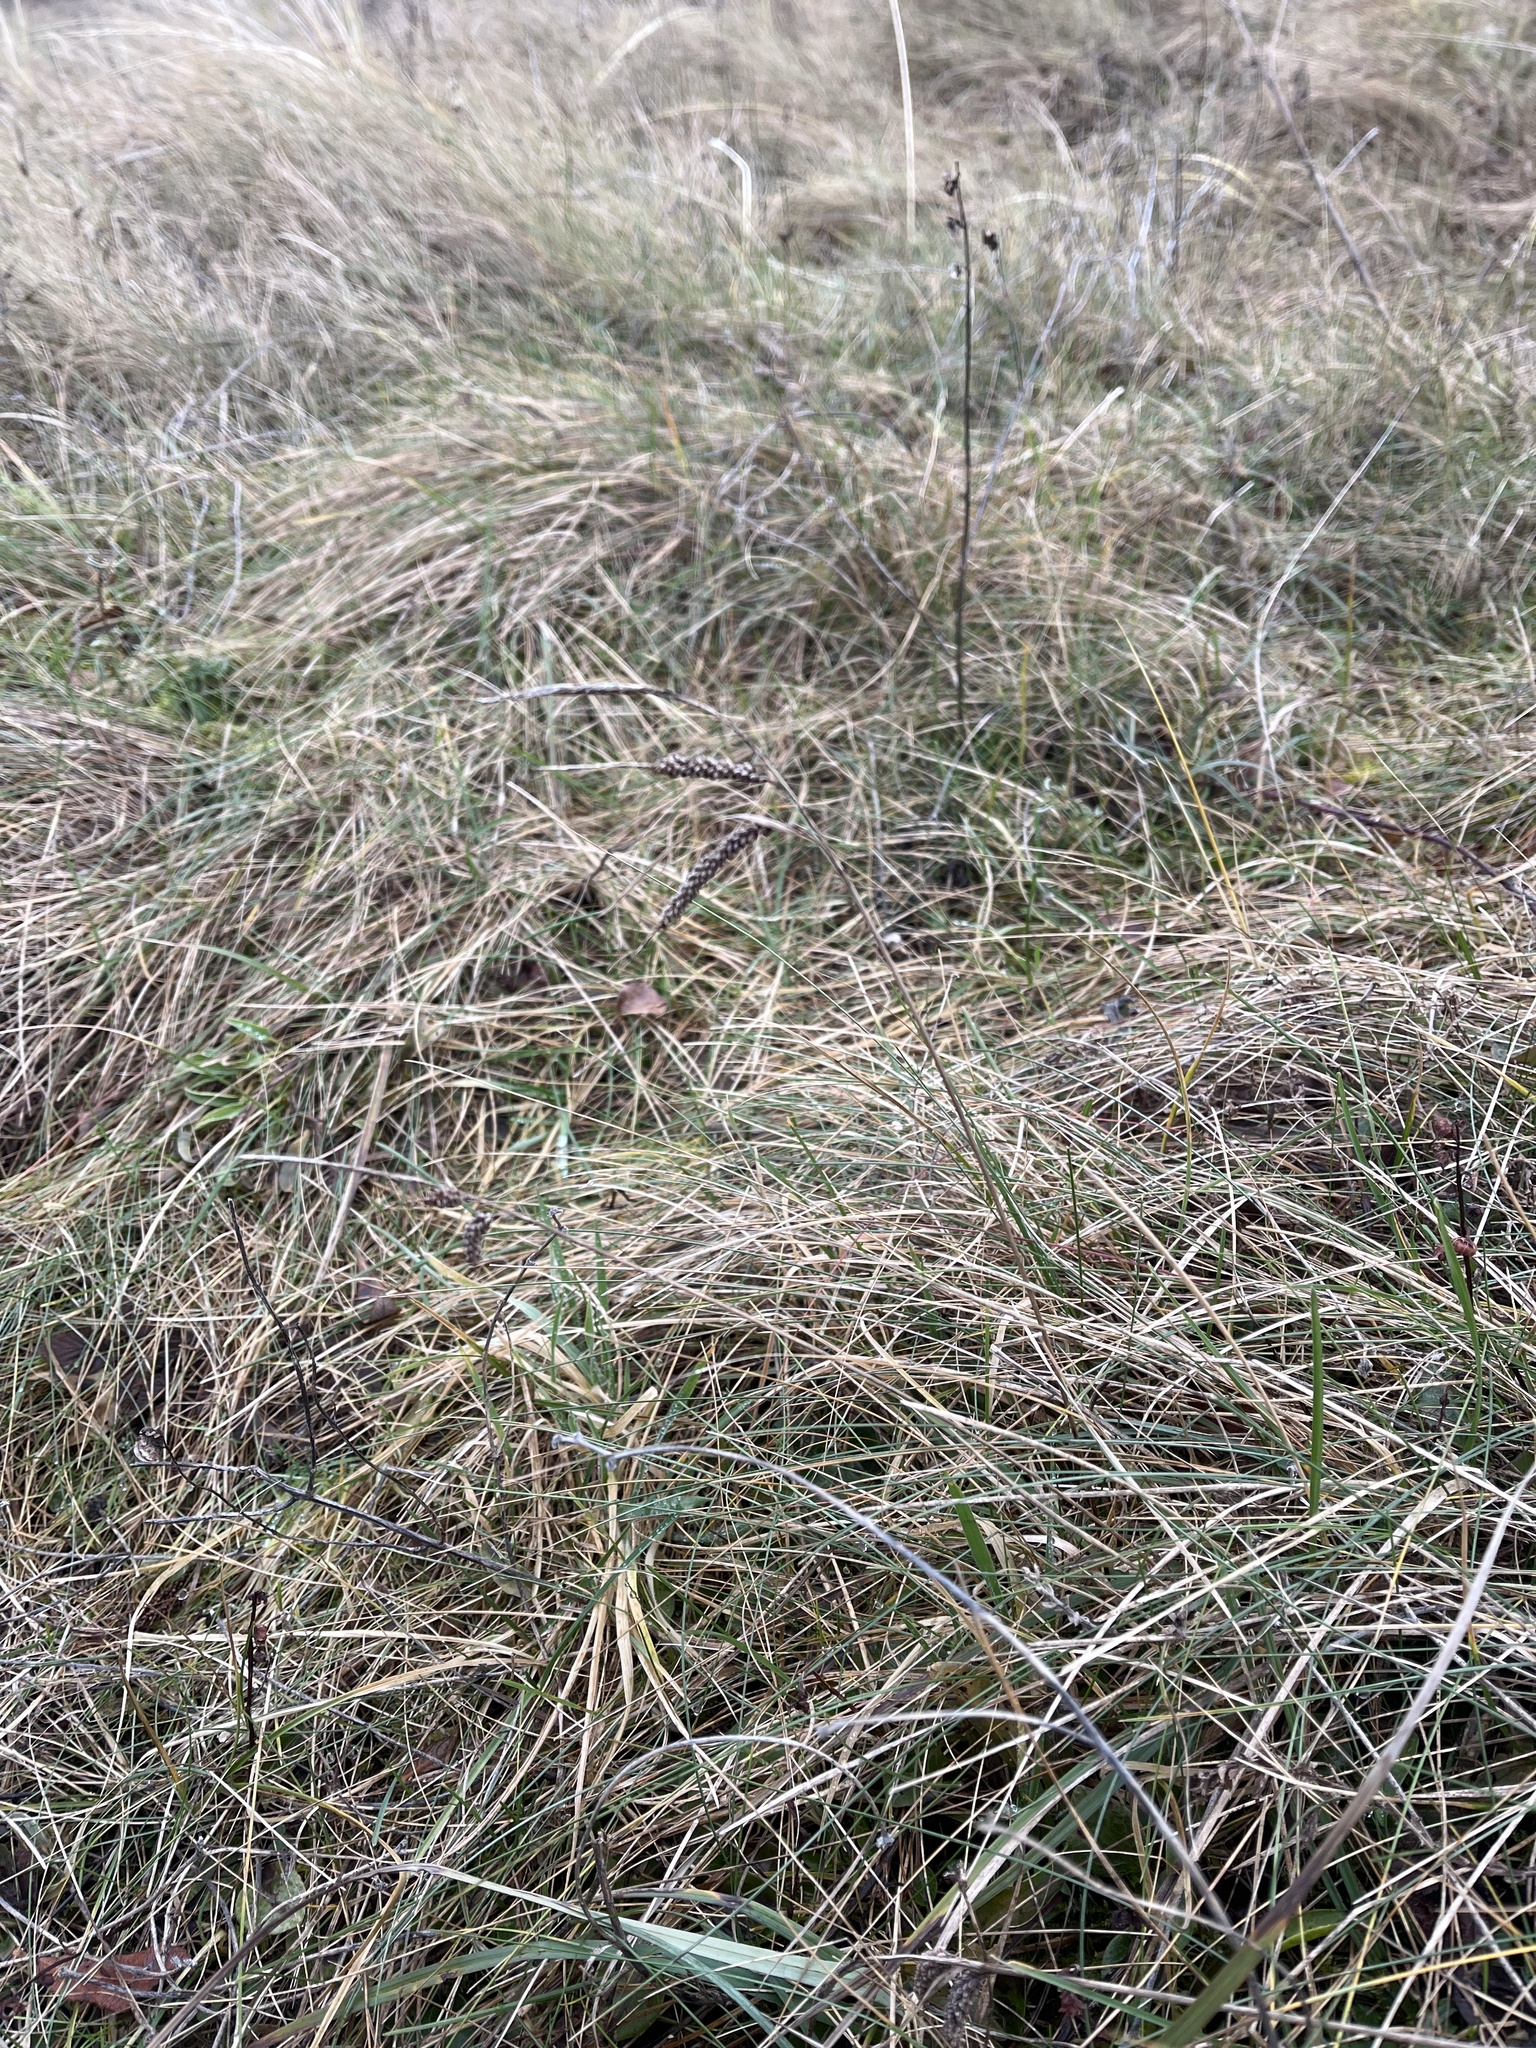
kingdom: Plantae
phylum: Tracheophyta
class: Liliopsida
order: Poales
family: Cyperaceae
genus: Carex
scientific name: Carex flacca
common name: Glaucous sedge
